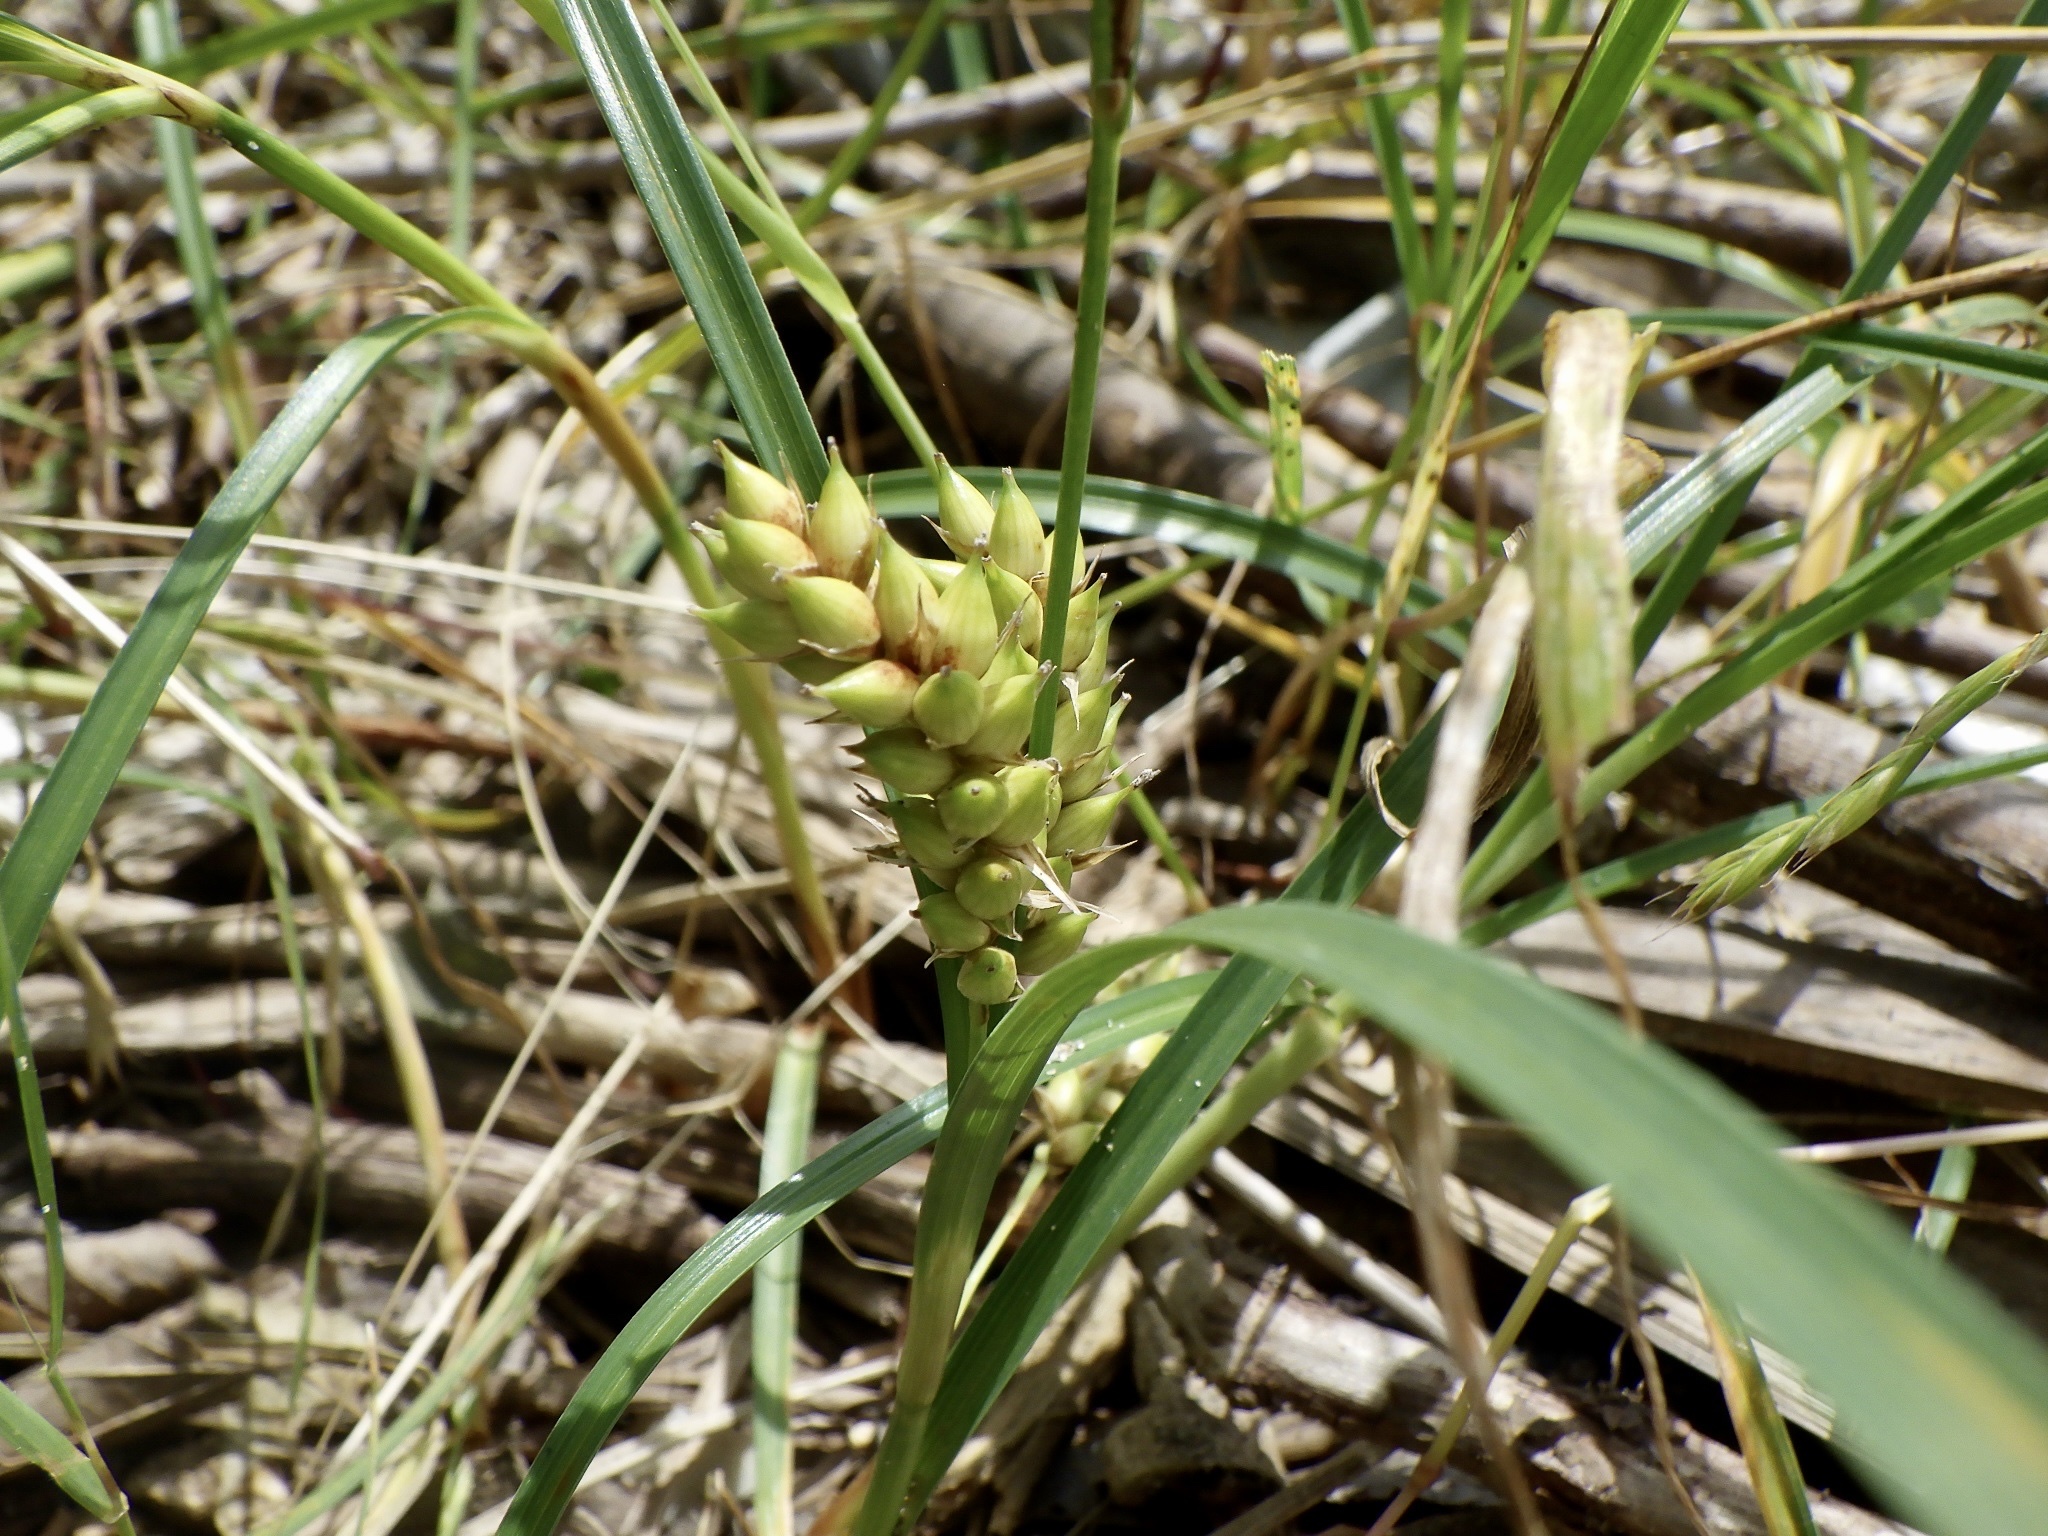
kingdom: Plantae
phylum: Tracheophyta
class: Liliopsida
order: Poales
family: Cyperaceae
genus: Carex
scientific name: Carex pumila
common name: Dwarf sedge
